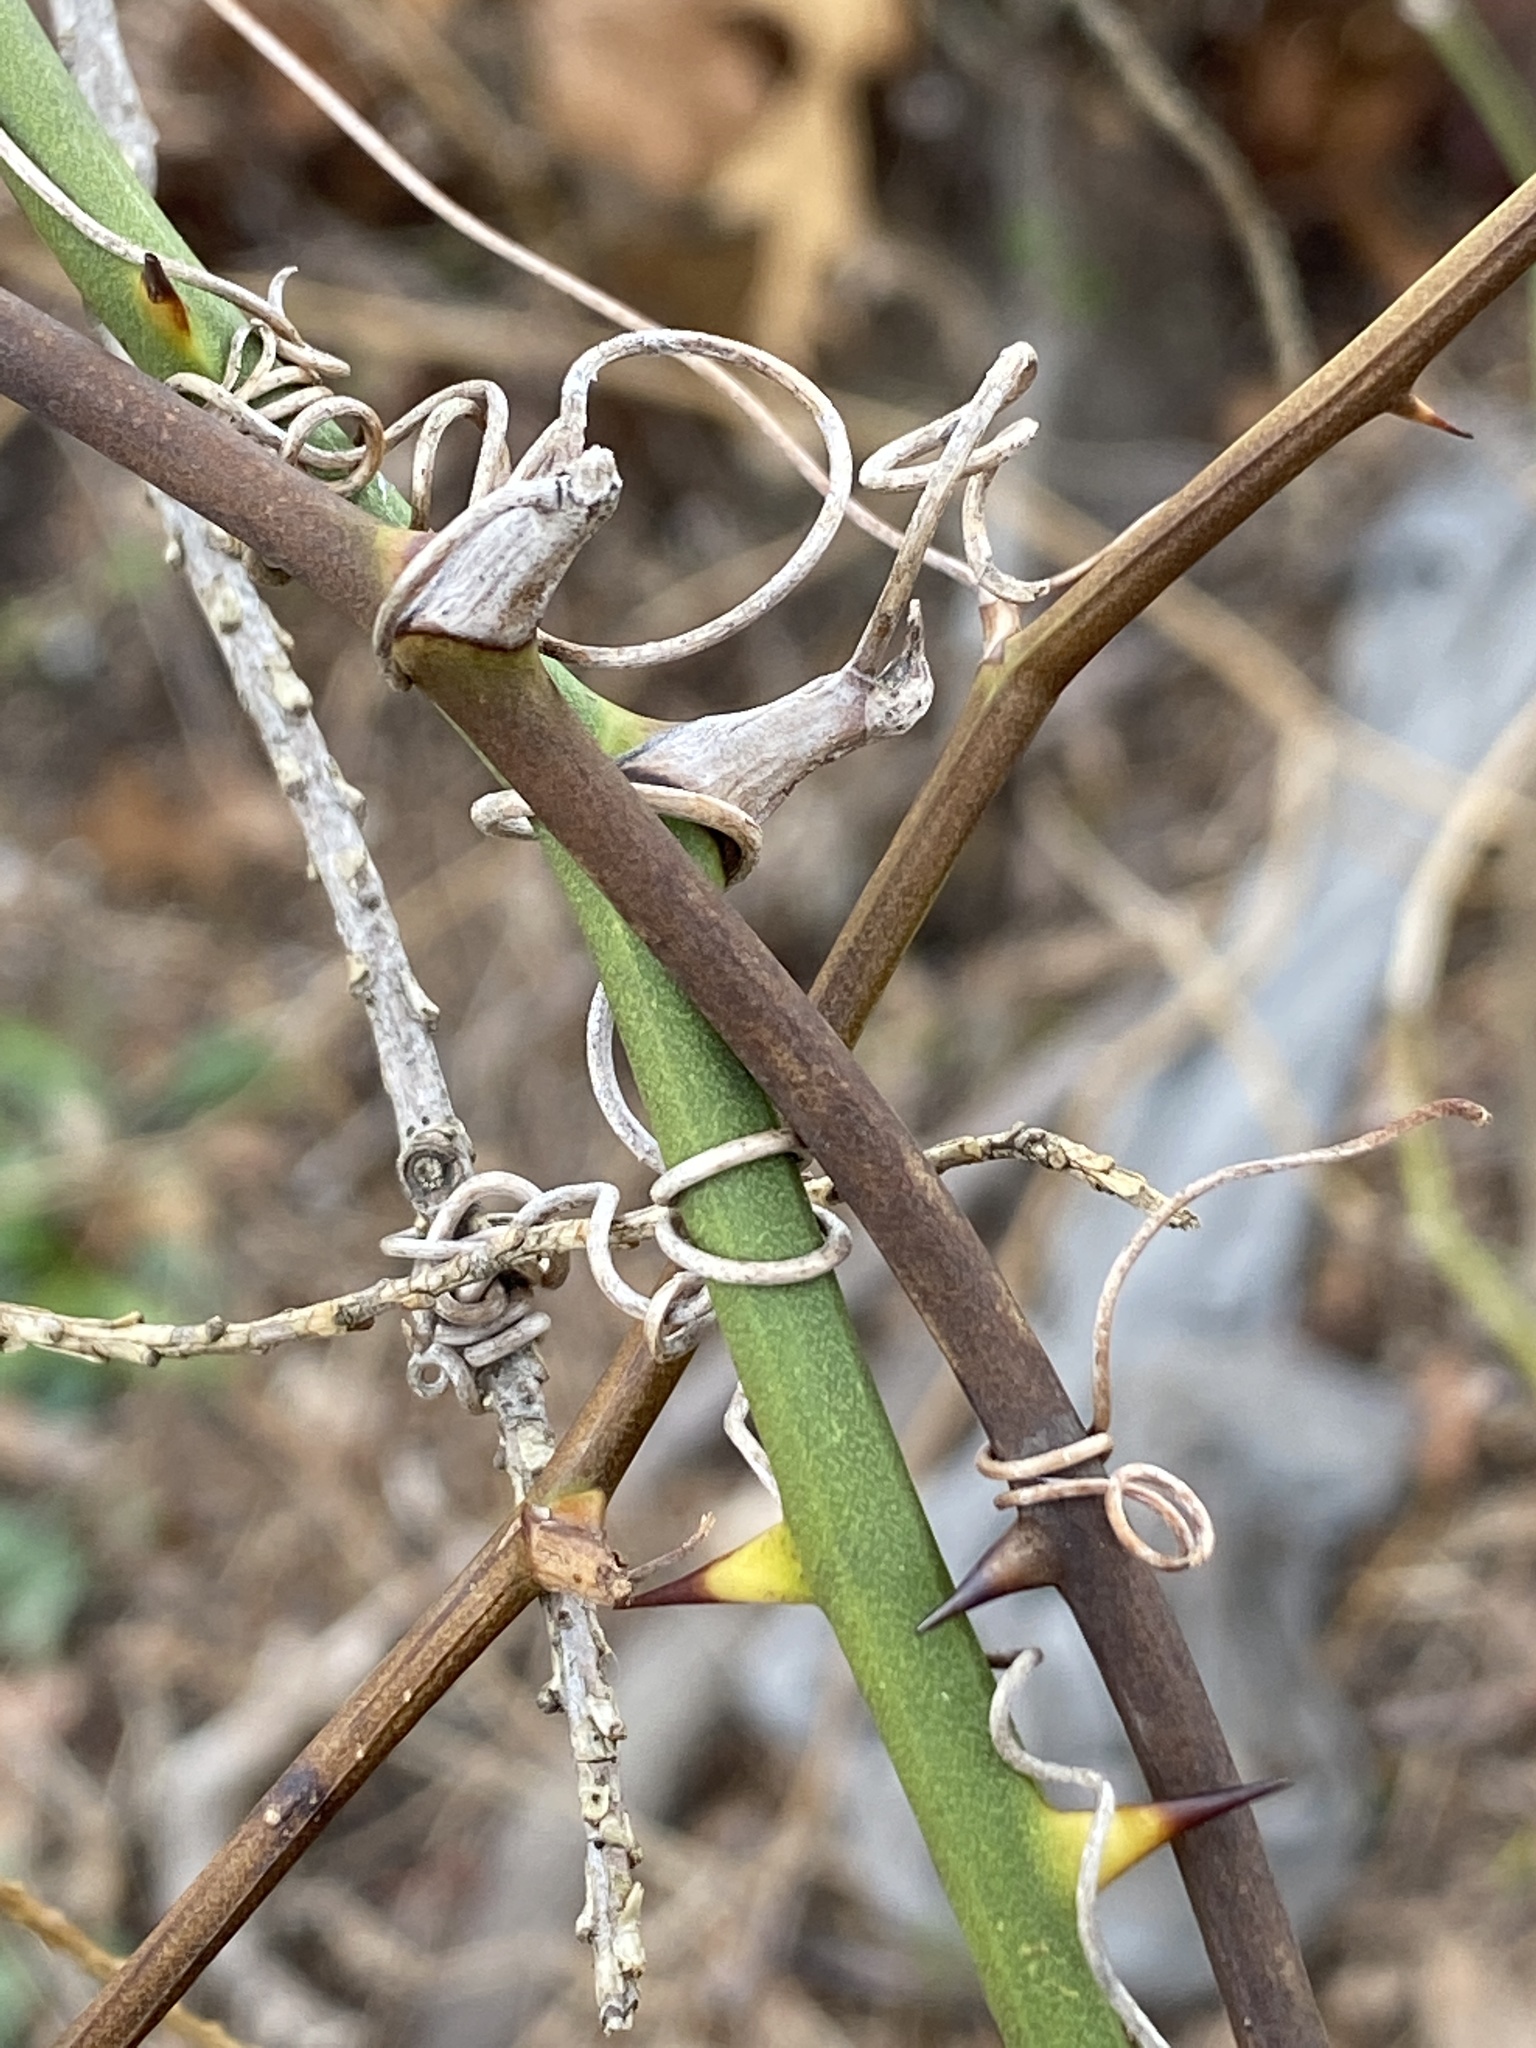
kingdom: Plantae
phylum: Tracheophyta
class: Liliopsida
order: Liliales
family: Smilacaceae
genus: Smilax
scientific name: Smilax rotundifolia
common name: Bullbriar
